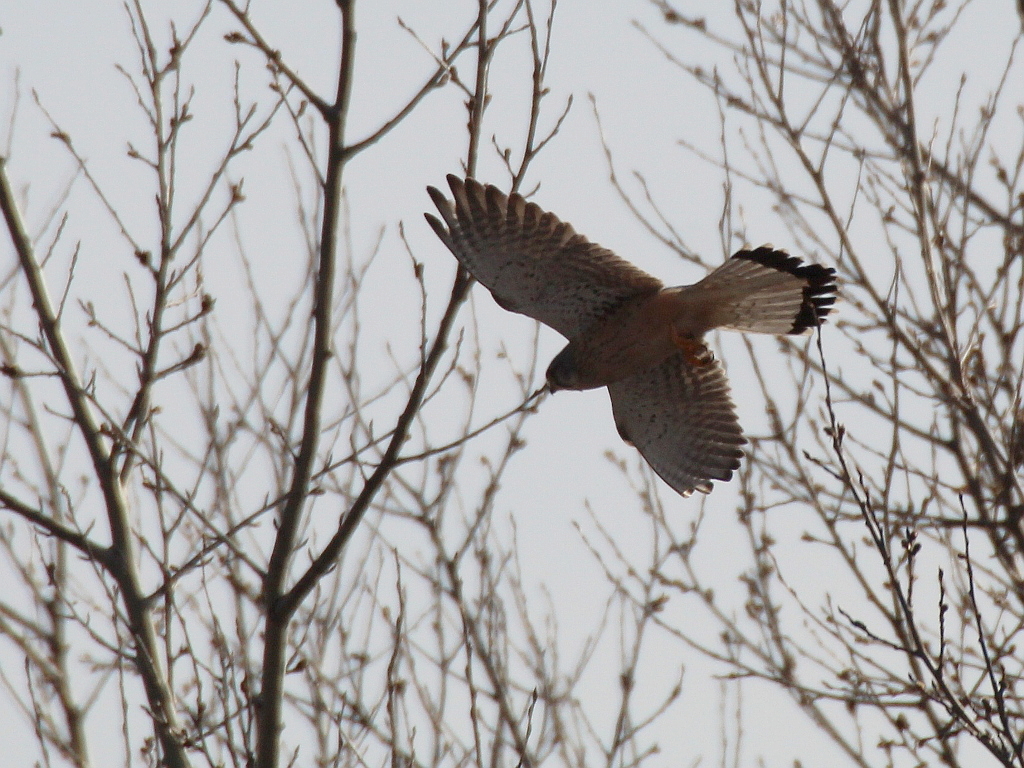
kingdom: Animalia
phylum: Chordata
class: Aves
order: Falconiformes
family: Falconidae
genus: Falco
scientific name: Falco tinnunculus
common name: Common kestrel
